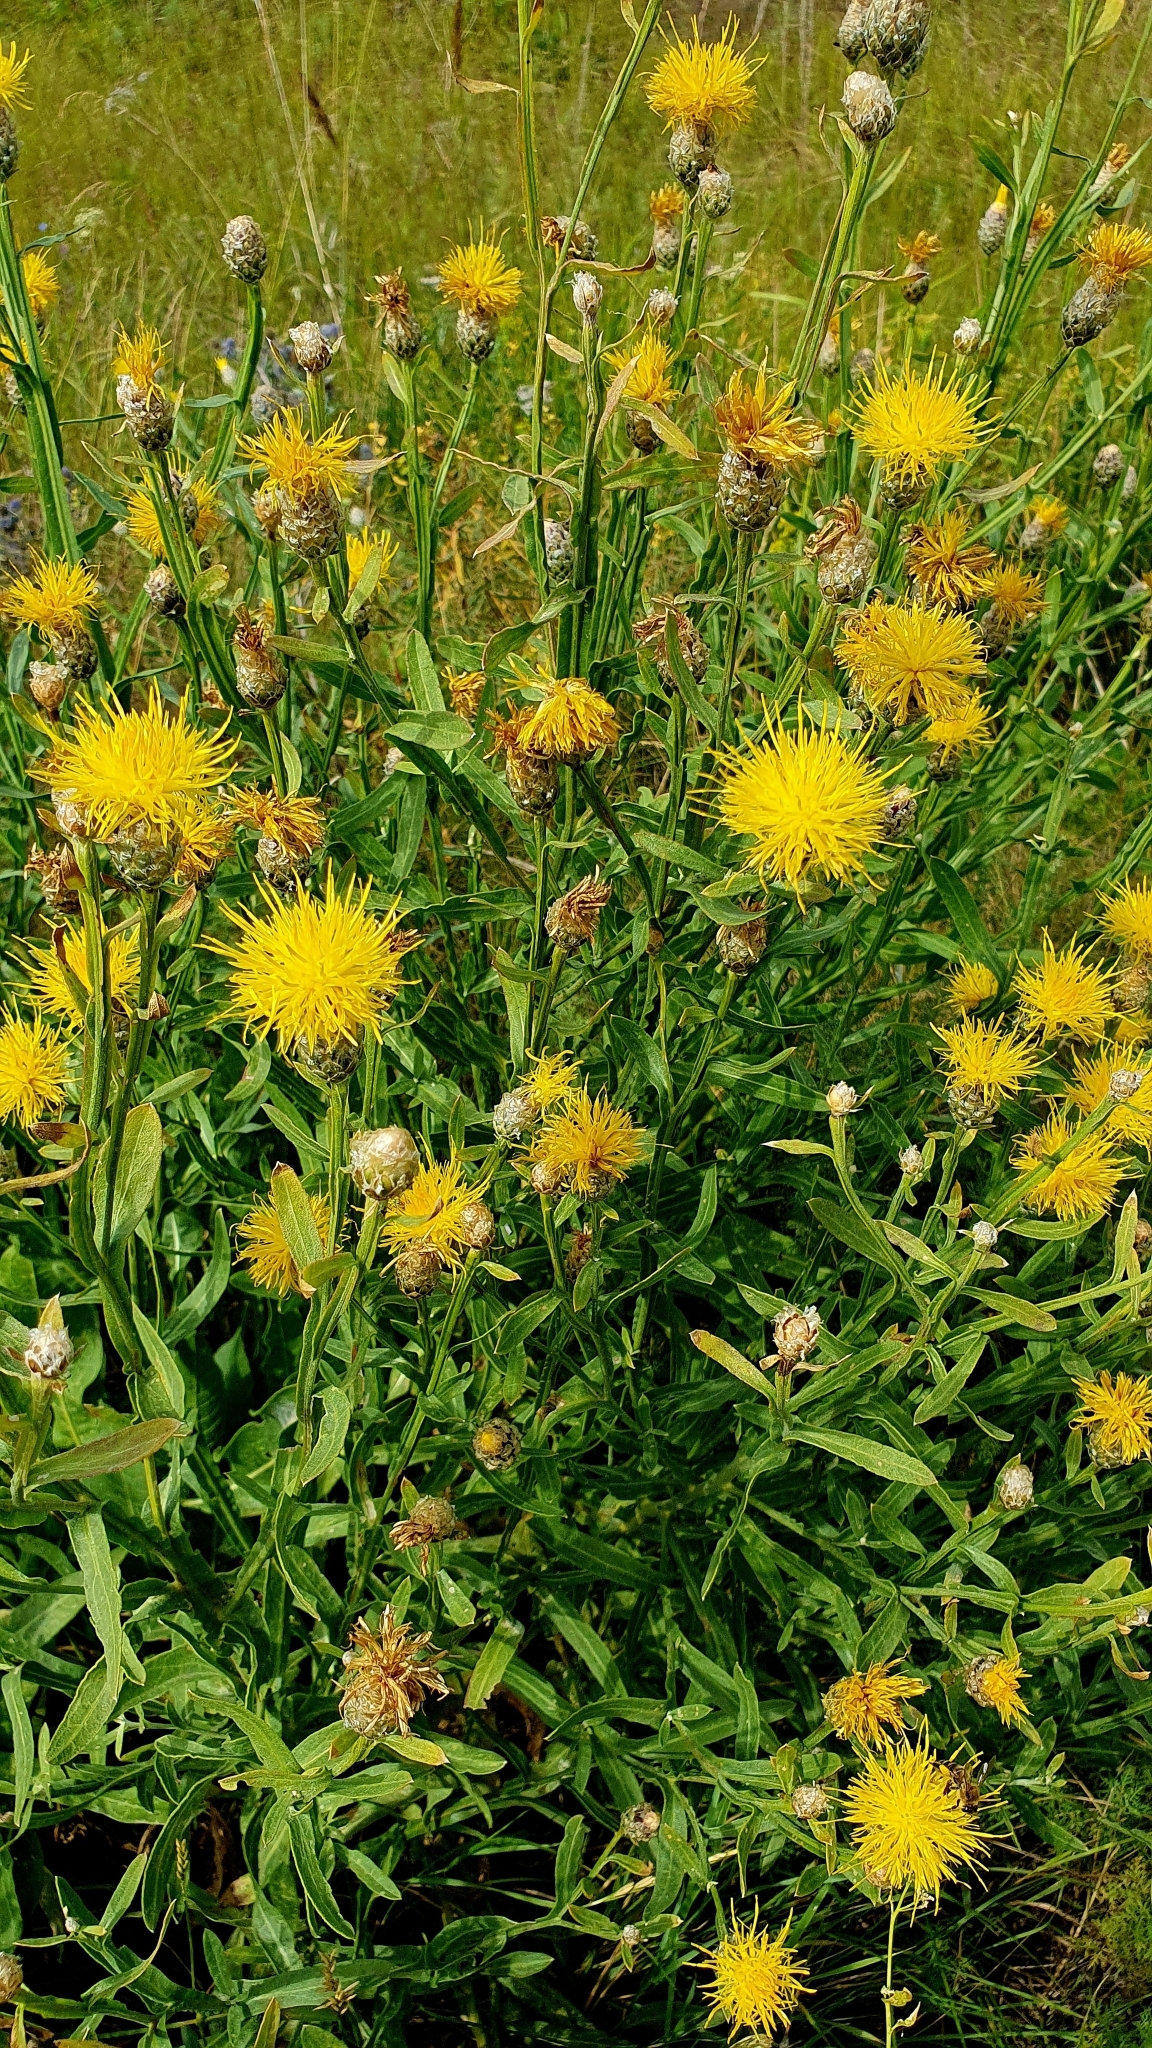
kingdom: Plantae
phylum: Tracheophyta
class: Magnoliopsida
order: Asterales
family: Asteraceae
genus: Centaurea
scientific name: Centaurea glastifolia
